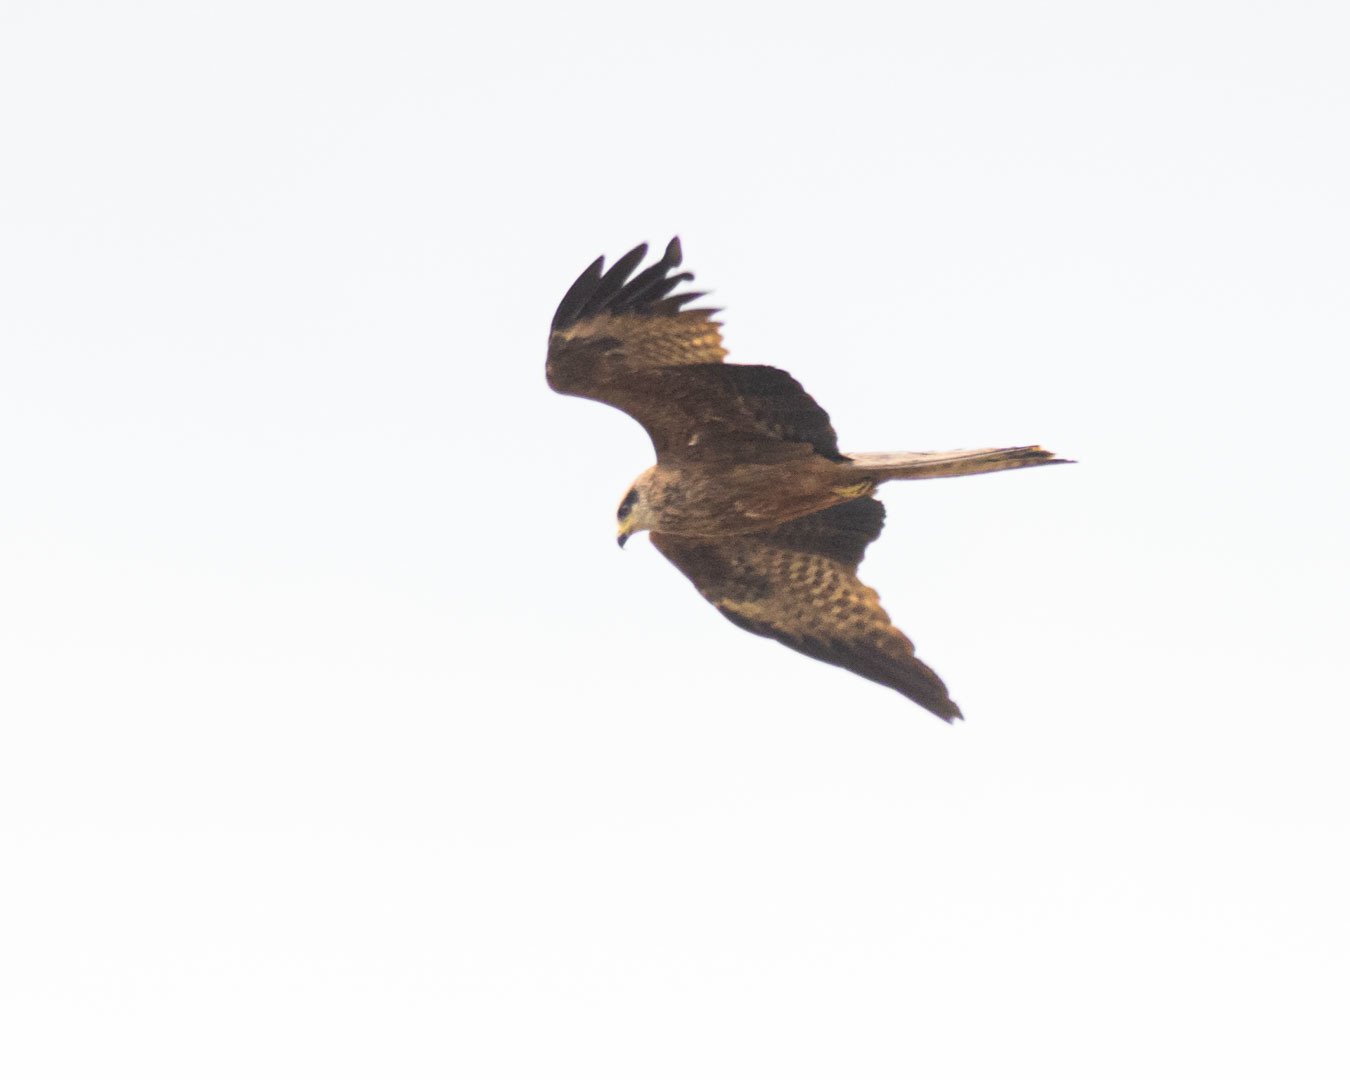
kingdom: Animalia
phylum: Chordata
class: Aves
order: Accipitriformes
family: Accipitridae
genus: Milvus
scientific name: Milvus migrans
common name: Black kite
